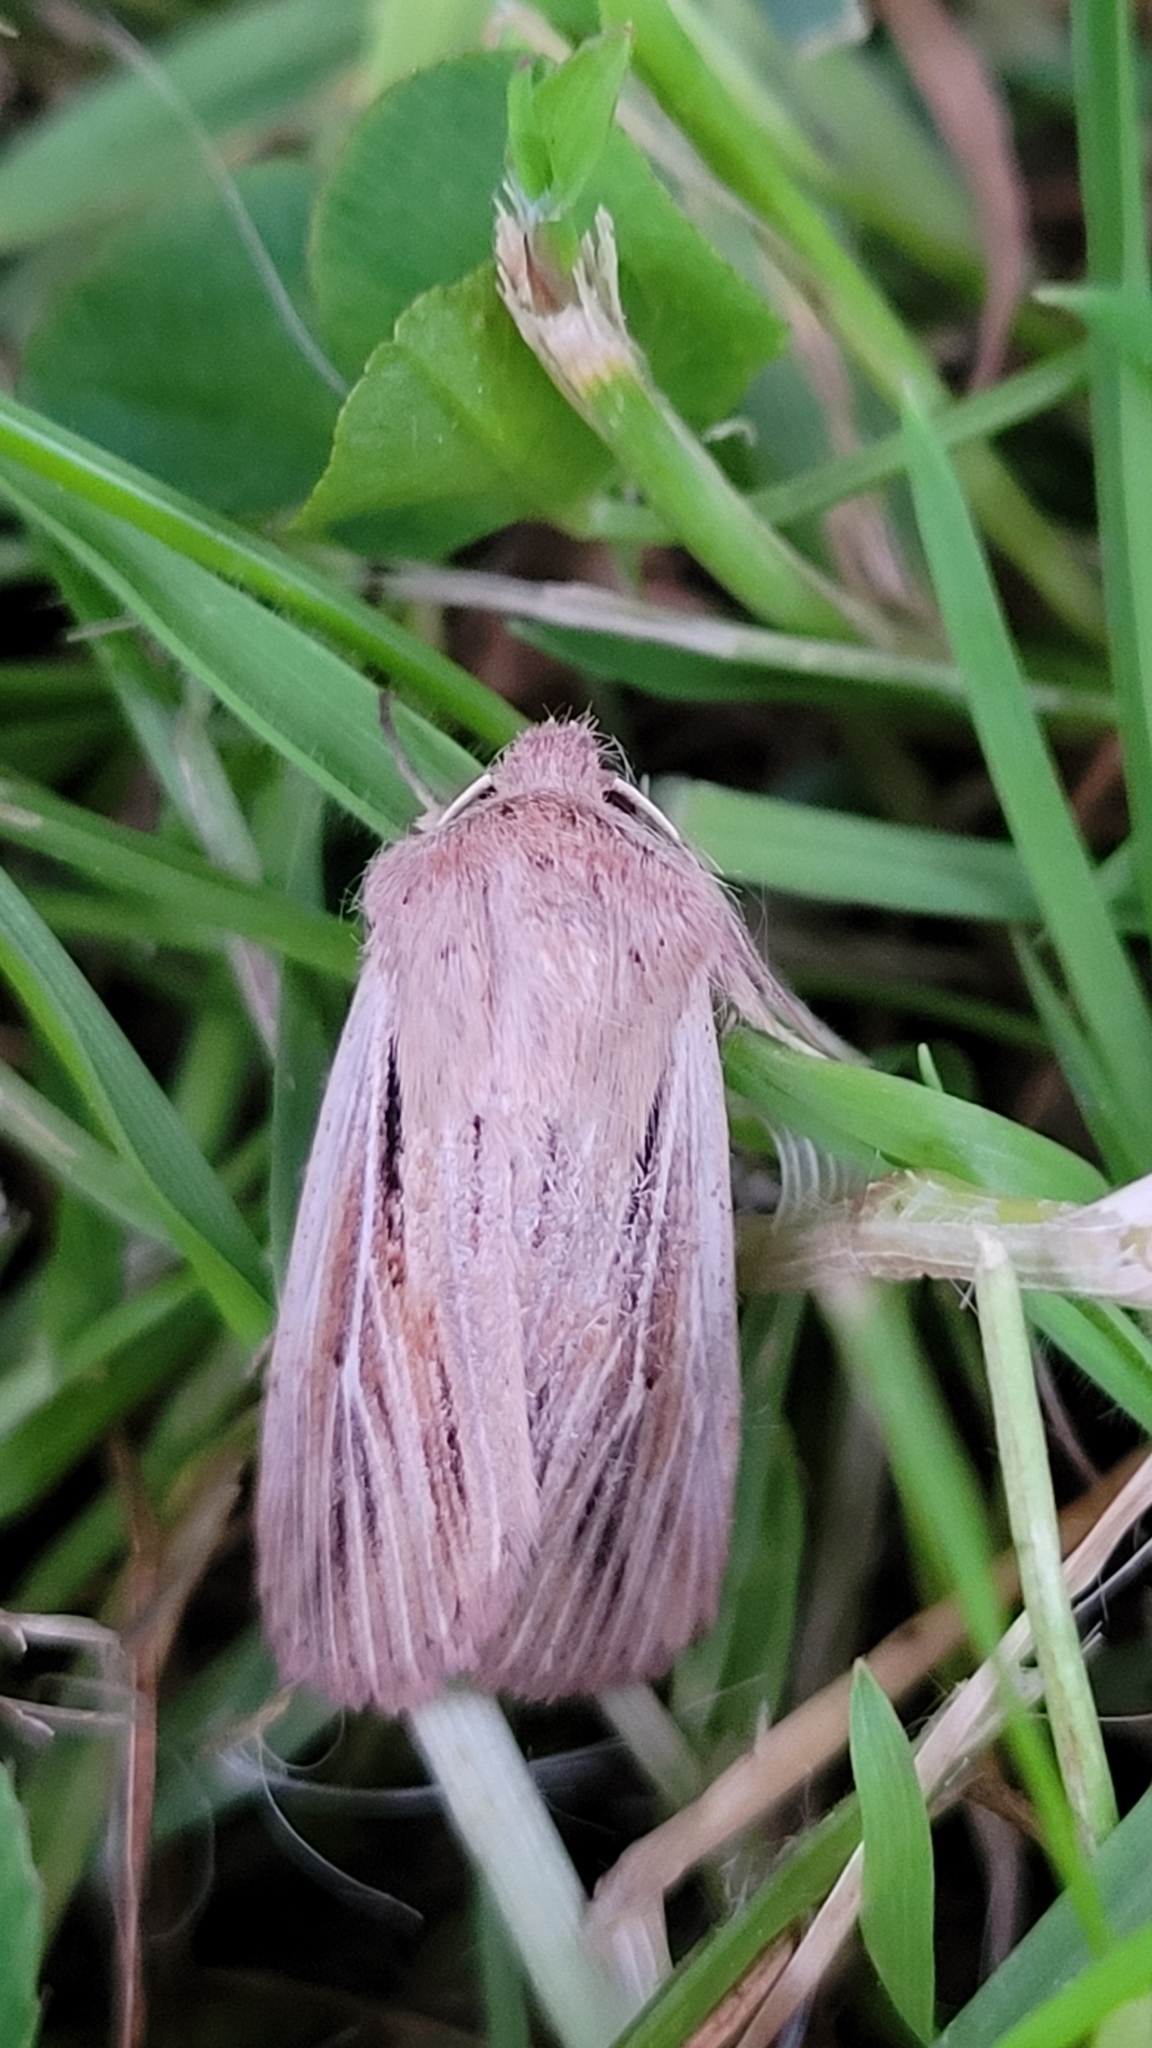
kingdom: Animalia
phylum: Arthropoda
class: Insecta
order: Lepidoptera
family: Noctuidae
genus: Leucania
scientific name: Leucania comma
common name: Shoulder-striped wainscot
